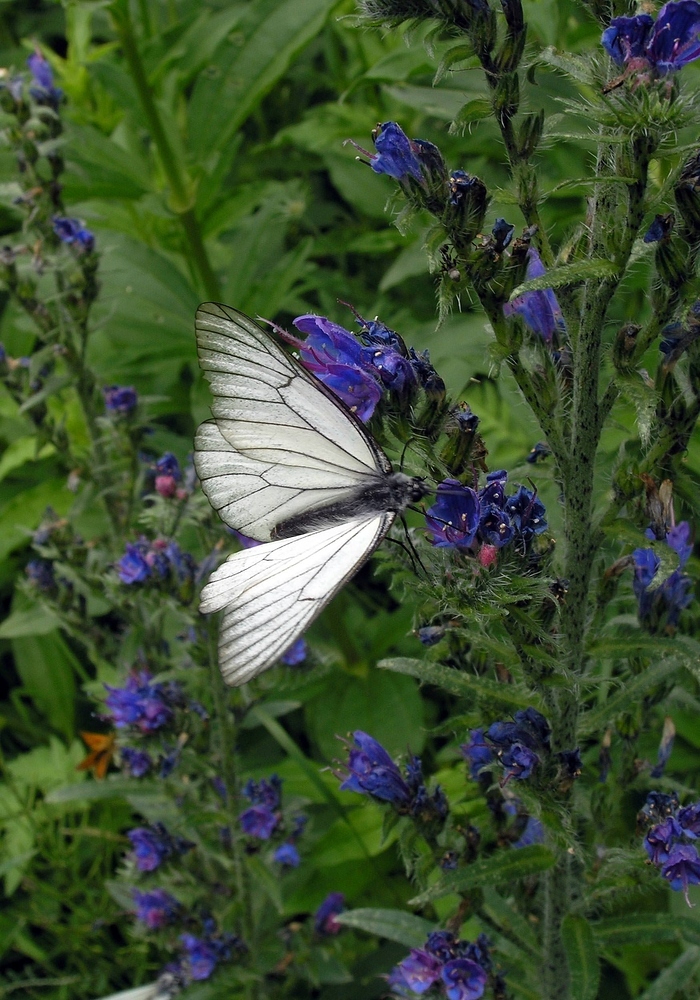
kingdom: Animalia
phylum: Arthropoda
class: Insecta
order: Lepidoptera
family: Pieridae
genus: Aporia
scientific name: Aporia crataegi
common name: Black-veined white
